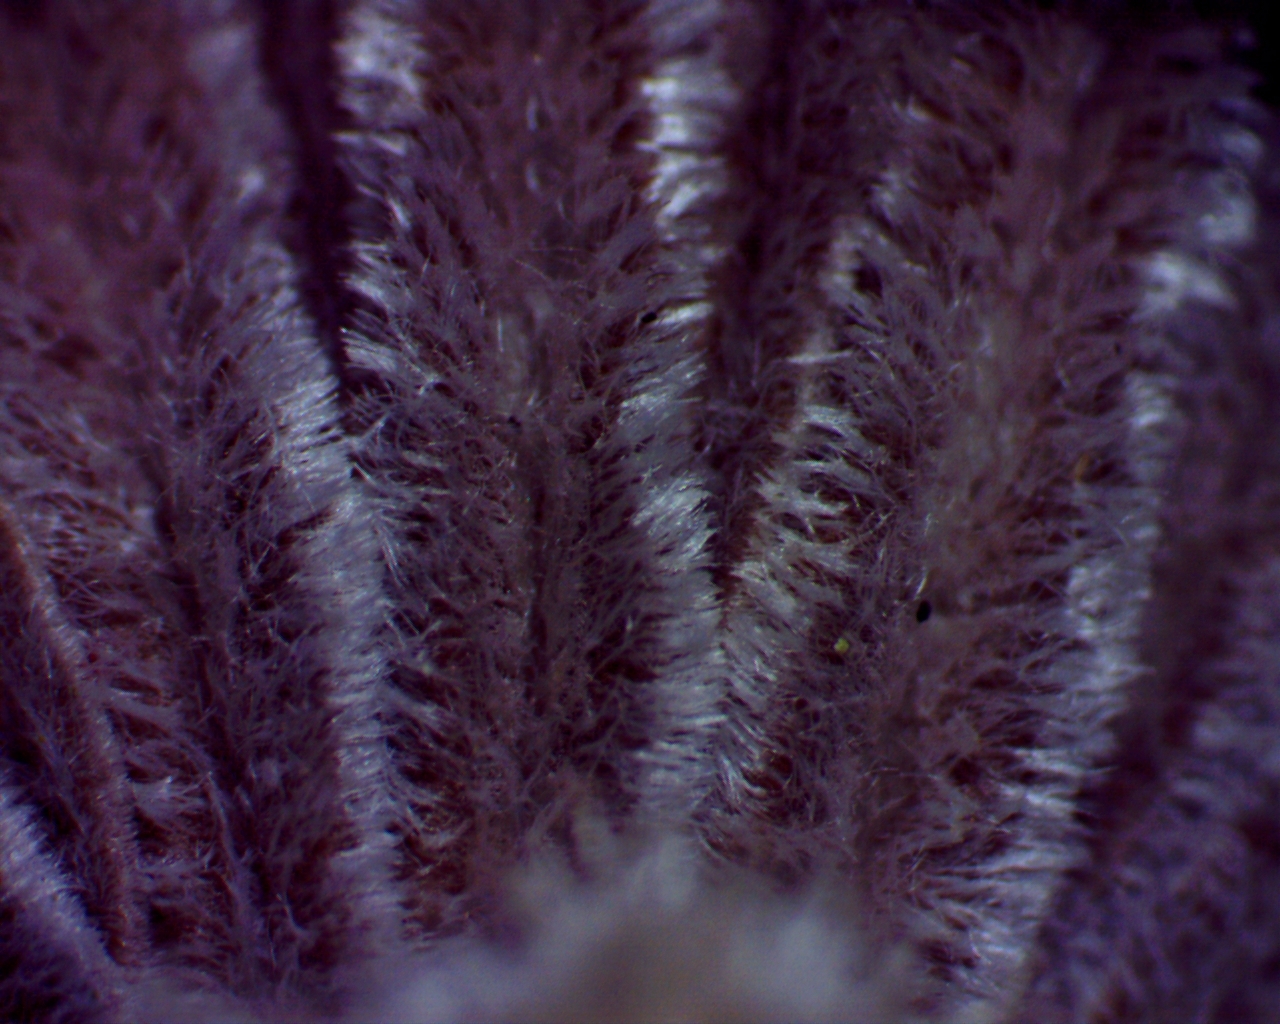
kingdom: Fungi
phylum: Basidiomycota
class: Agaricomycetes
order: Agaricales
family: Schizophyllaceae
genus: Schizophyllum
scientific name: Schizophyllum commune
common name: Common porecrust
